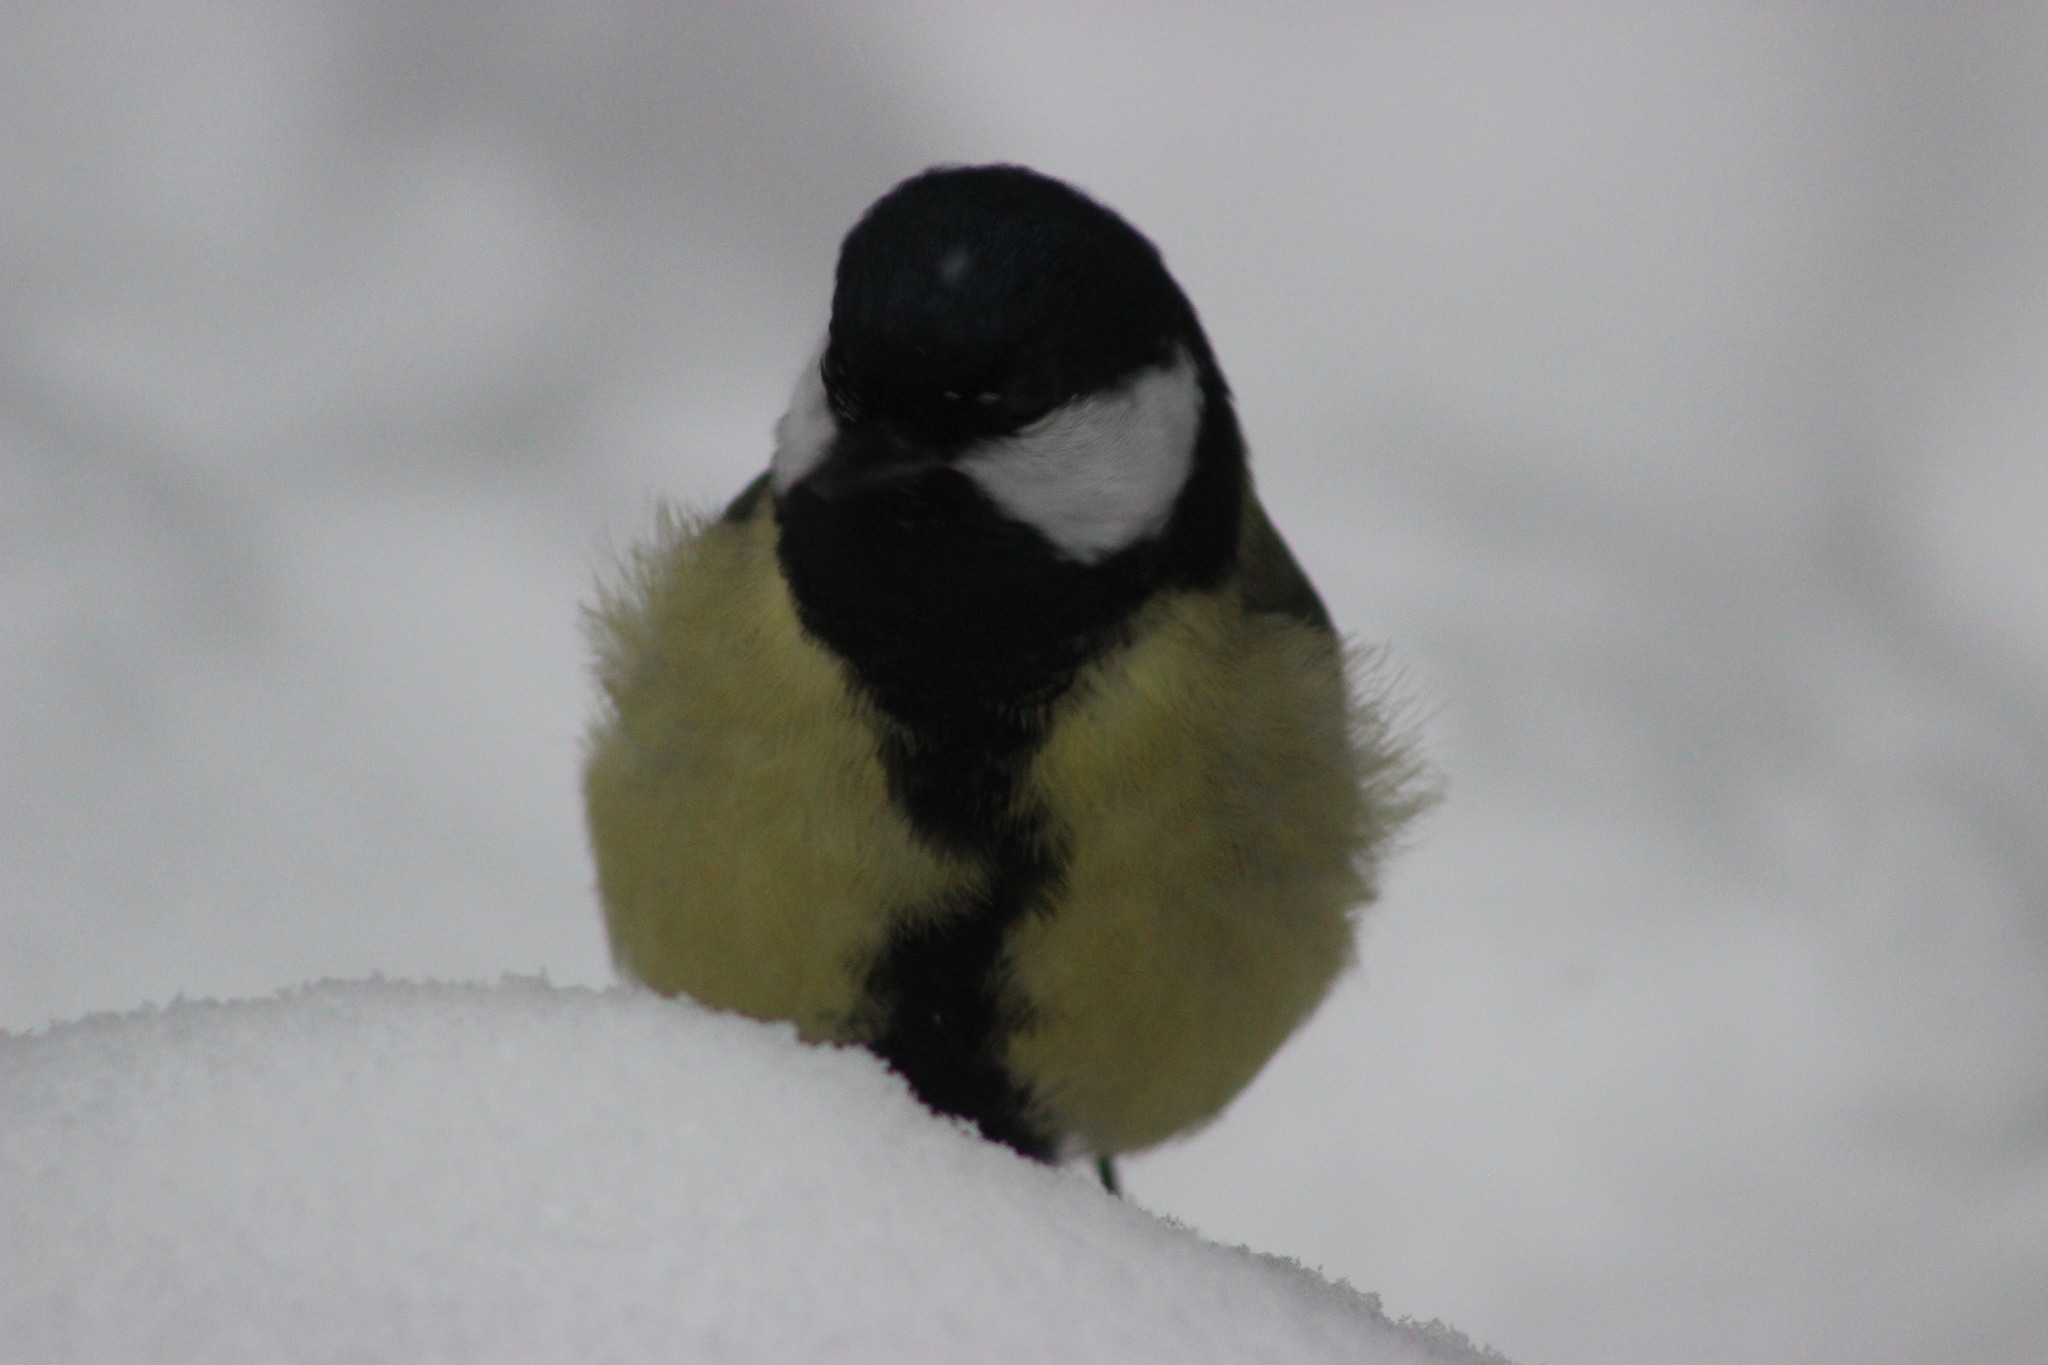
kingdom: Animalia
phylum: Chordata
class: Aves
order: Passeriformes
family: Paridae
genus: Parus
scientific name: Parus major
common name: Great tit
